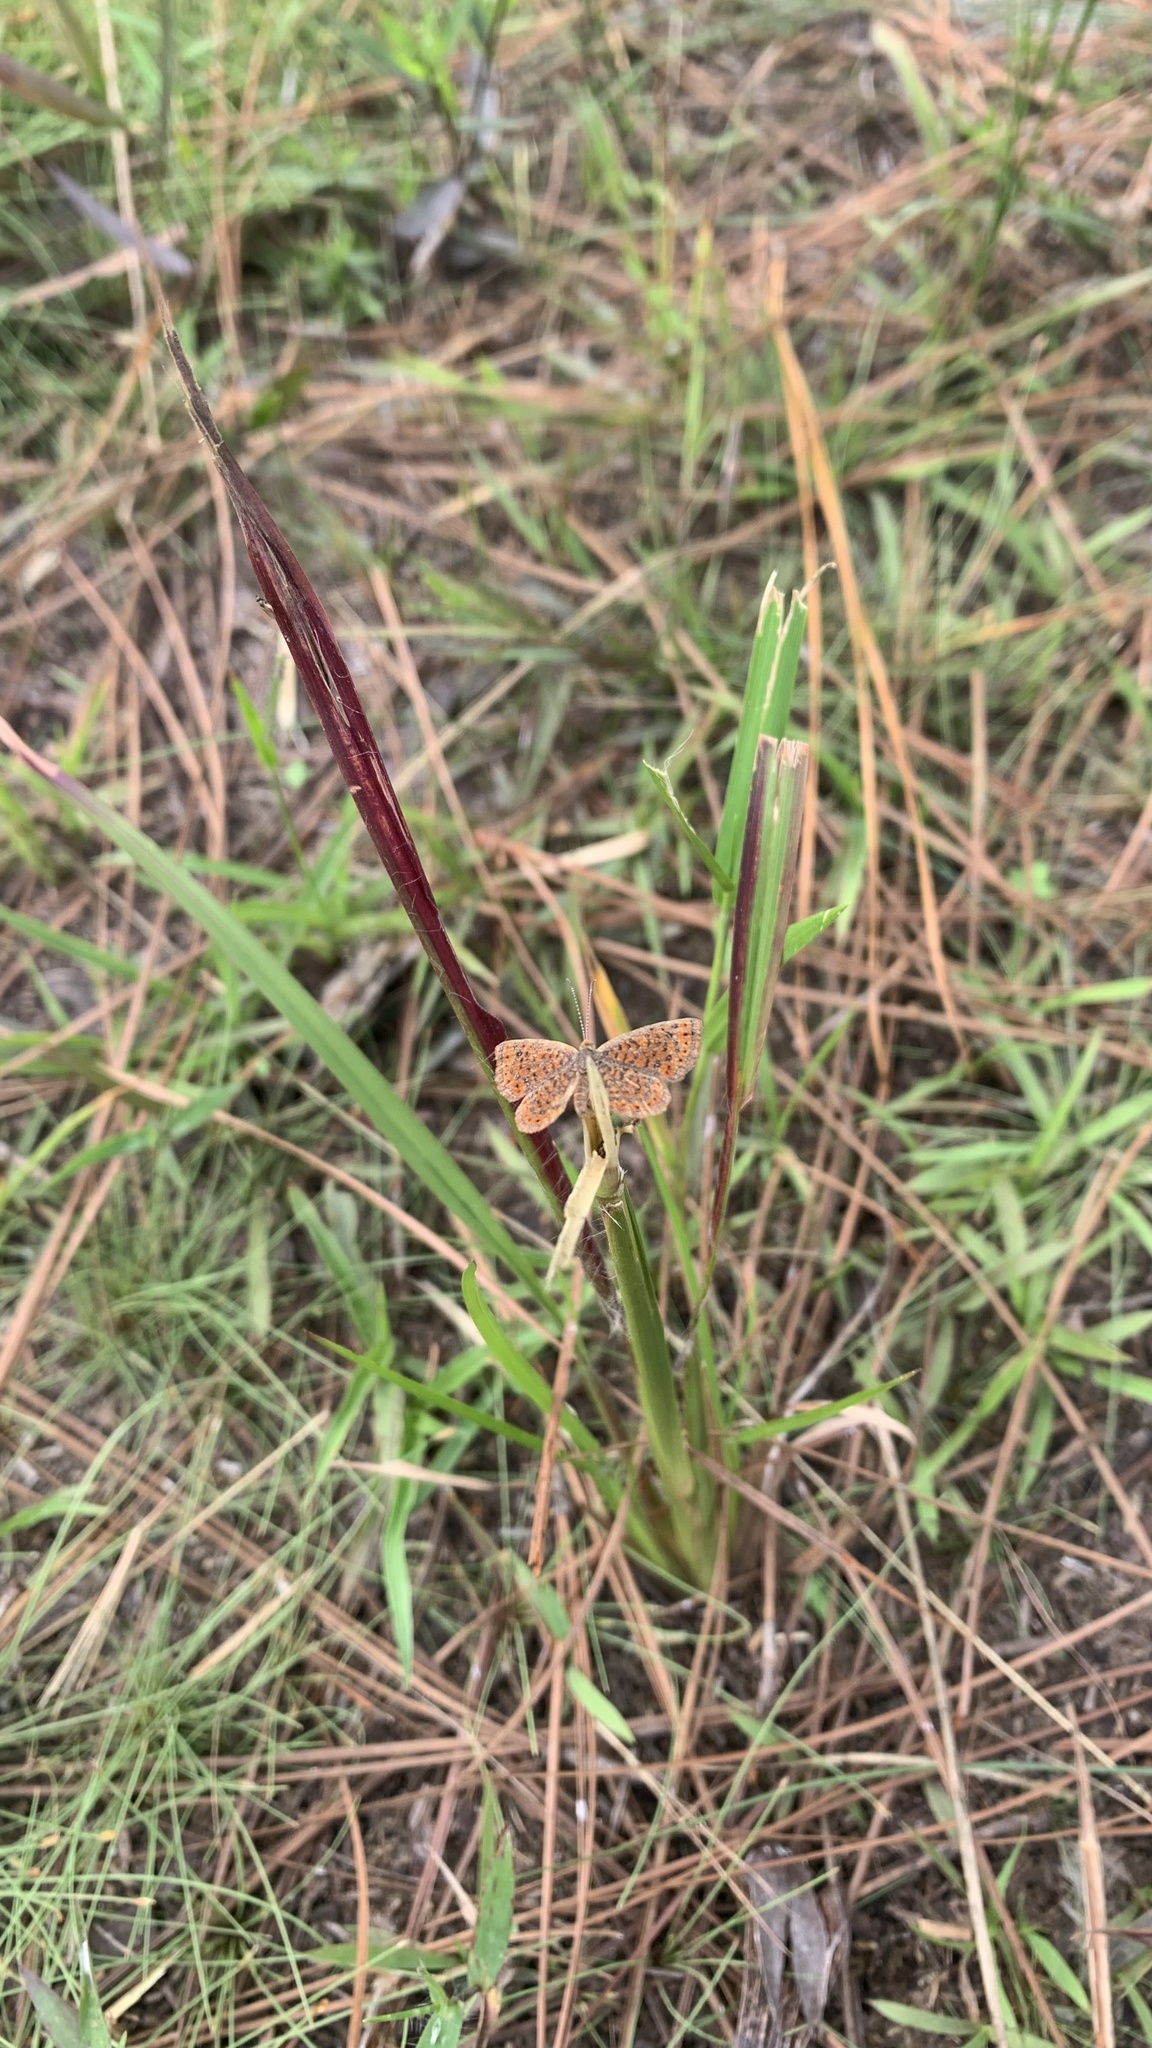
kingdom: Animalia
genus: Calephelis
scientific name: Calephelis virginiensis
